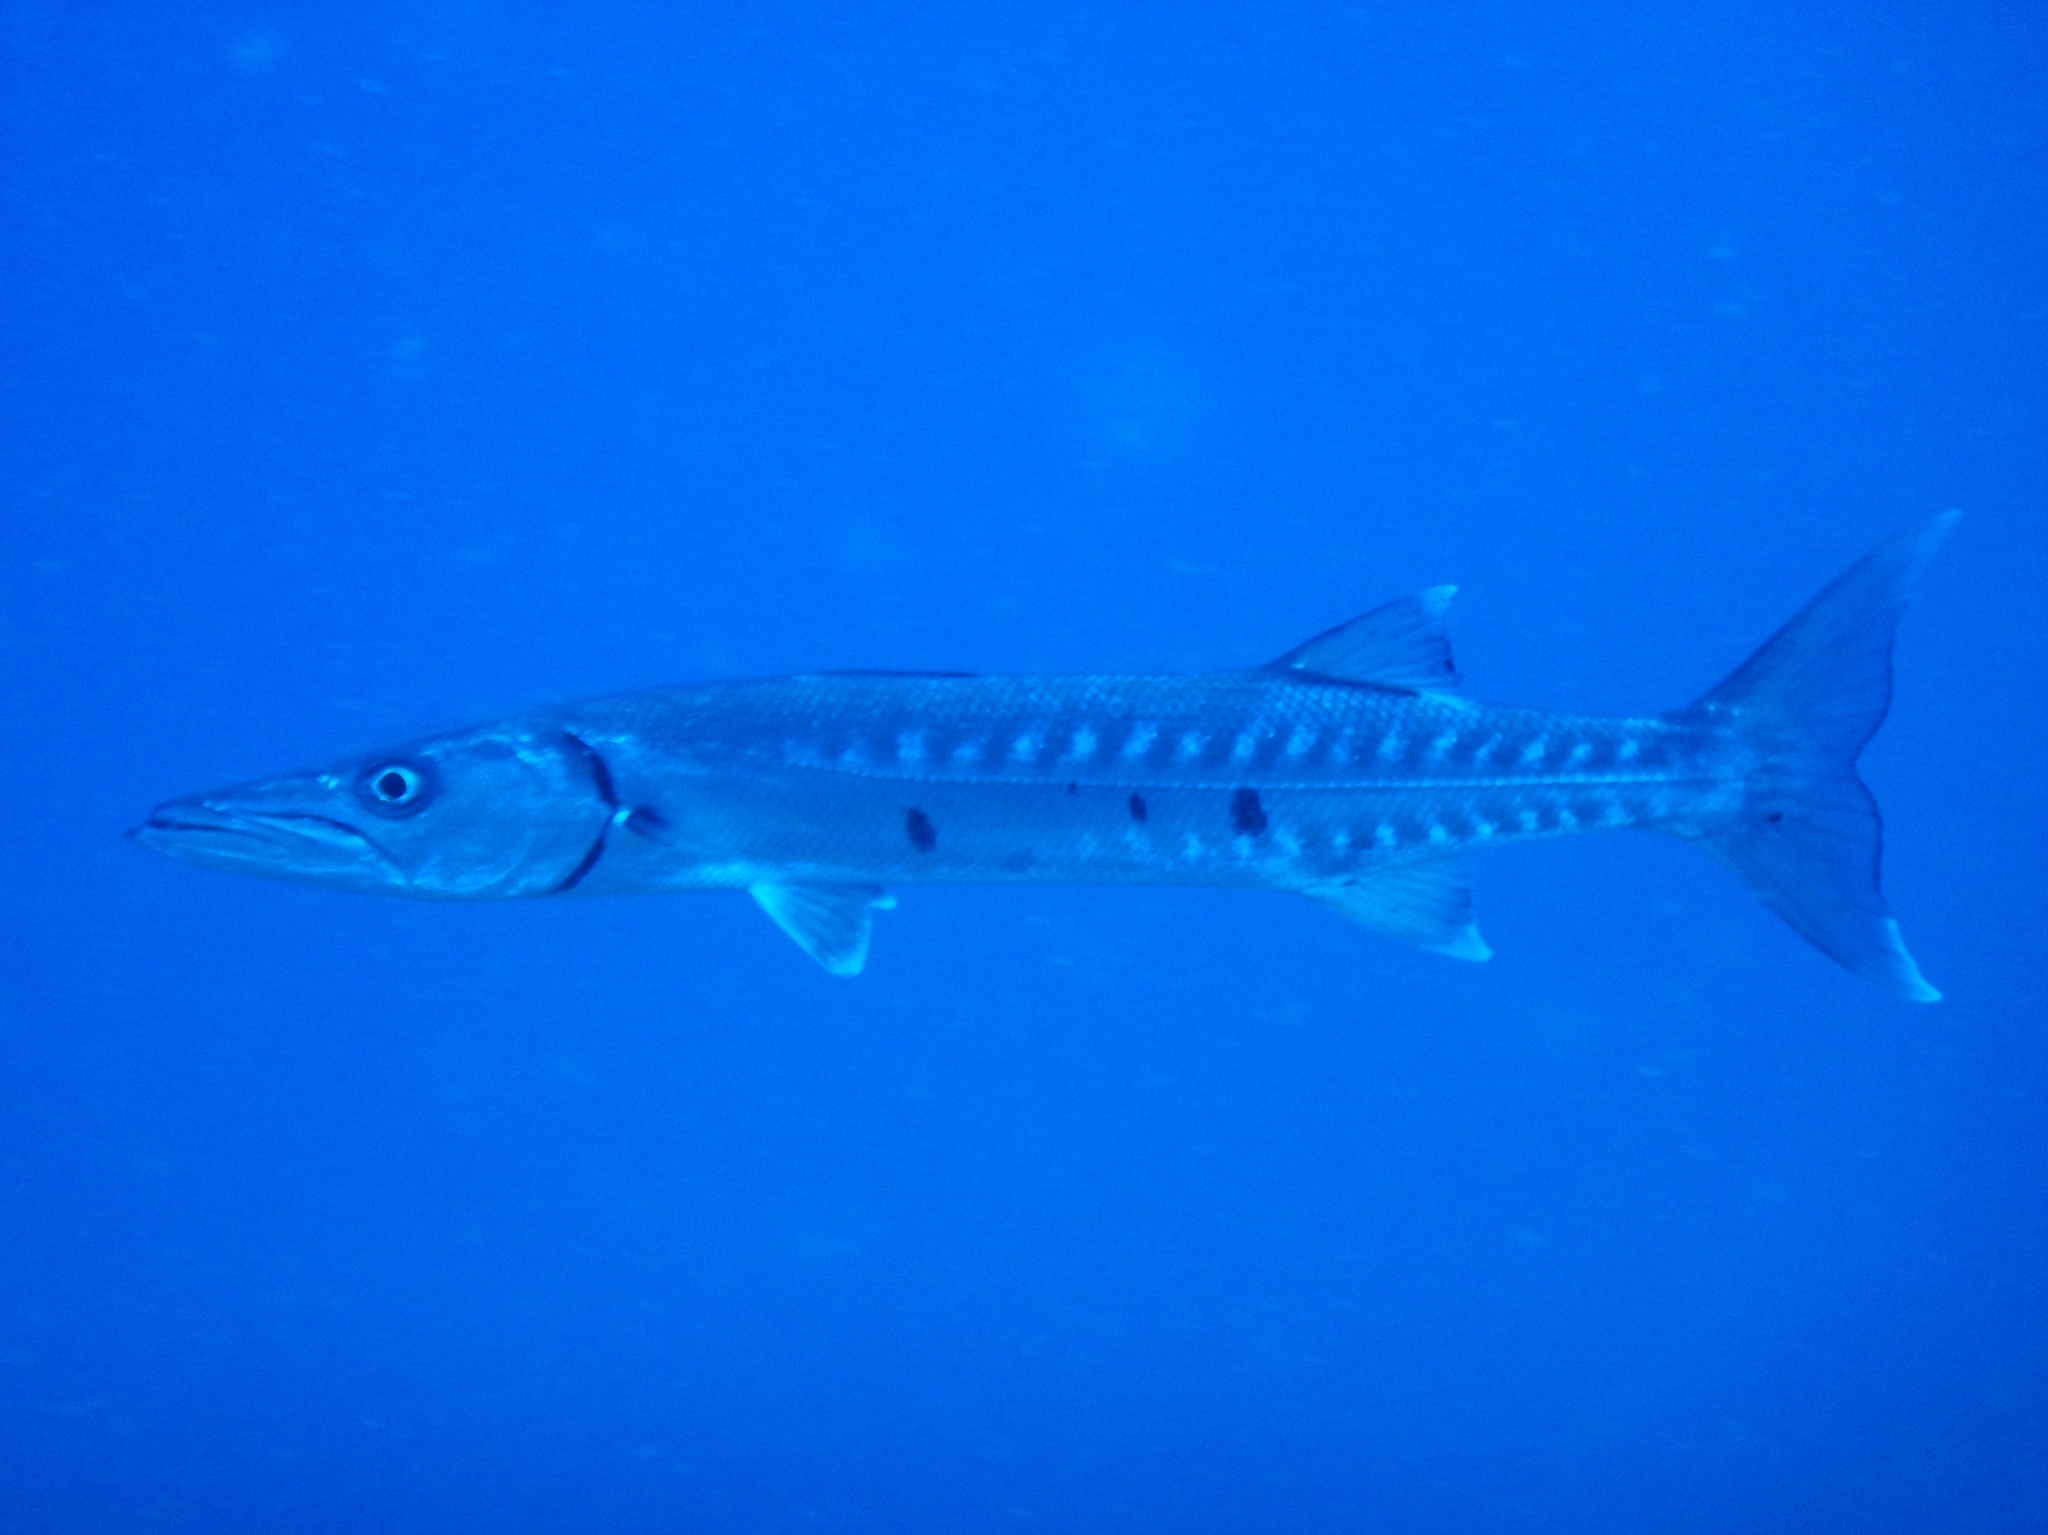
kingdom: Animalia
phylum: Chordata
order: Perciformes
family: Sphyraenidae
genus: Sphyraena
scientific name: Sphyraena barracuda
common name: Great barracuda
